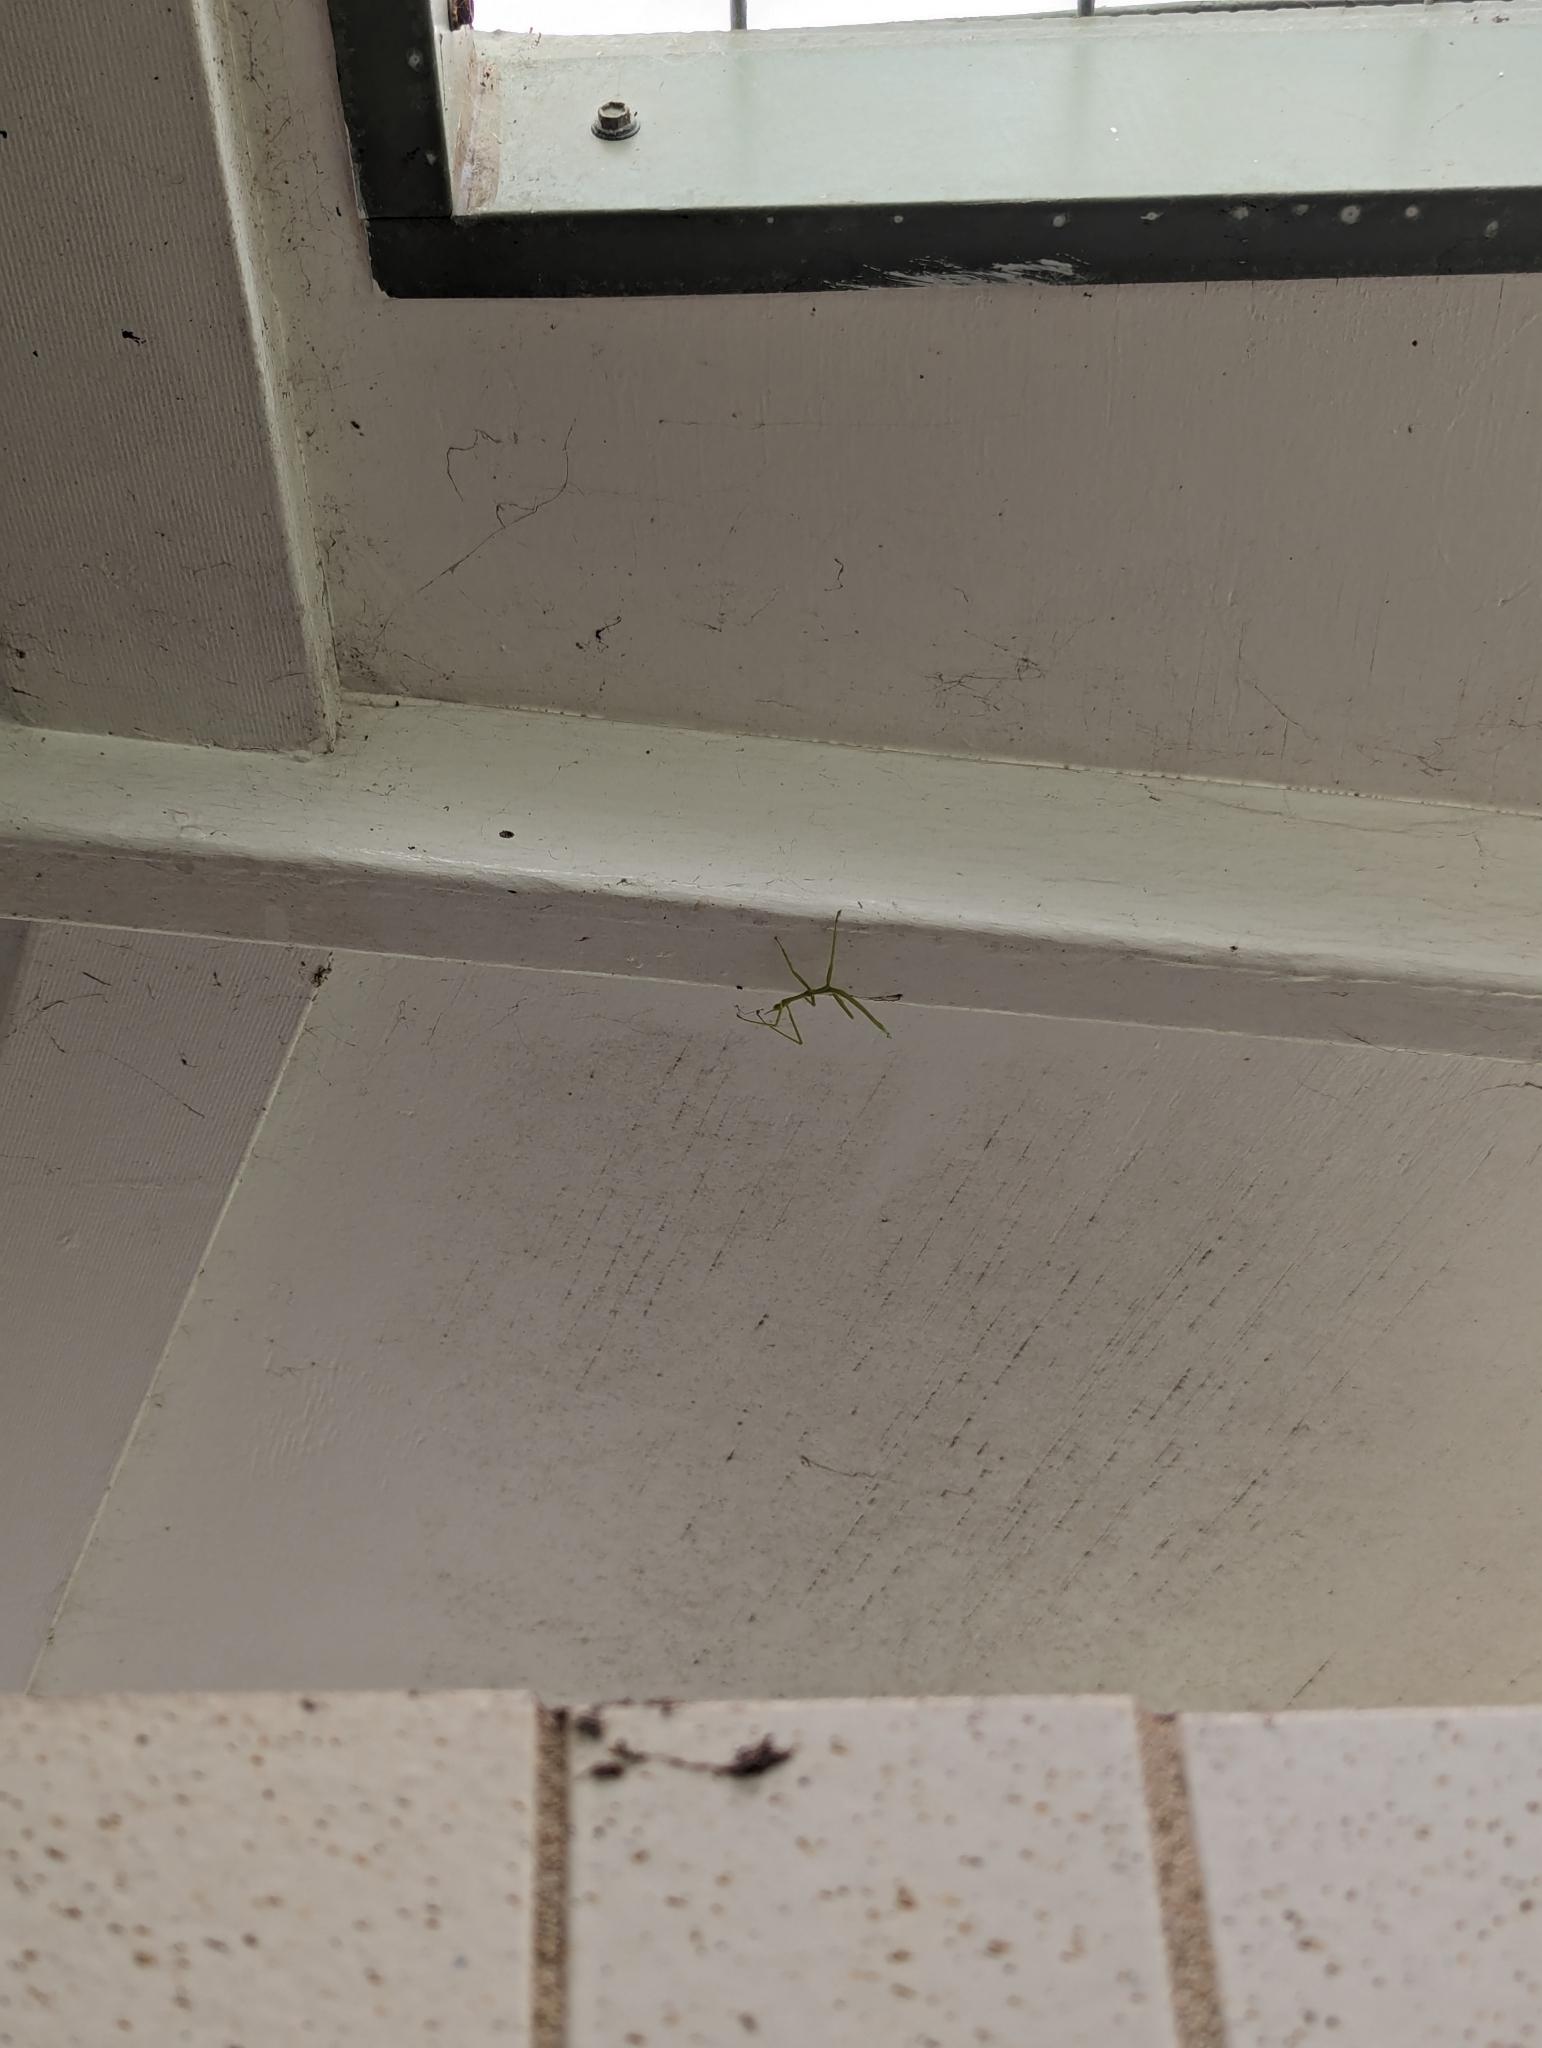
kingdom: Animalia
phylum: Arthropoda
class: Insecta
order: Phasmida
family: Phasmatidae
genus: Didymuria
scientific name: Didymuria violescens
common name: Spur-legged stick-insect
